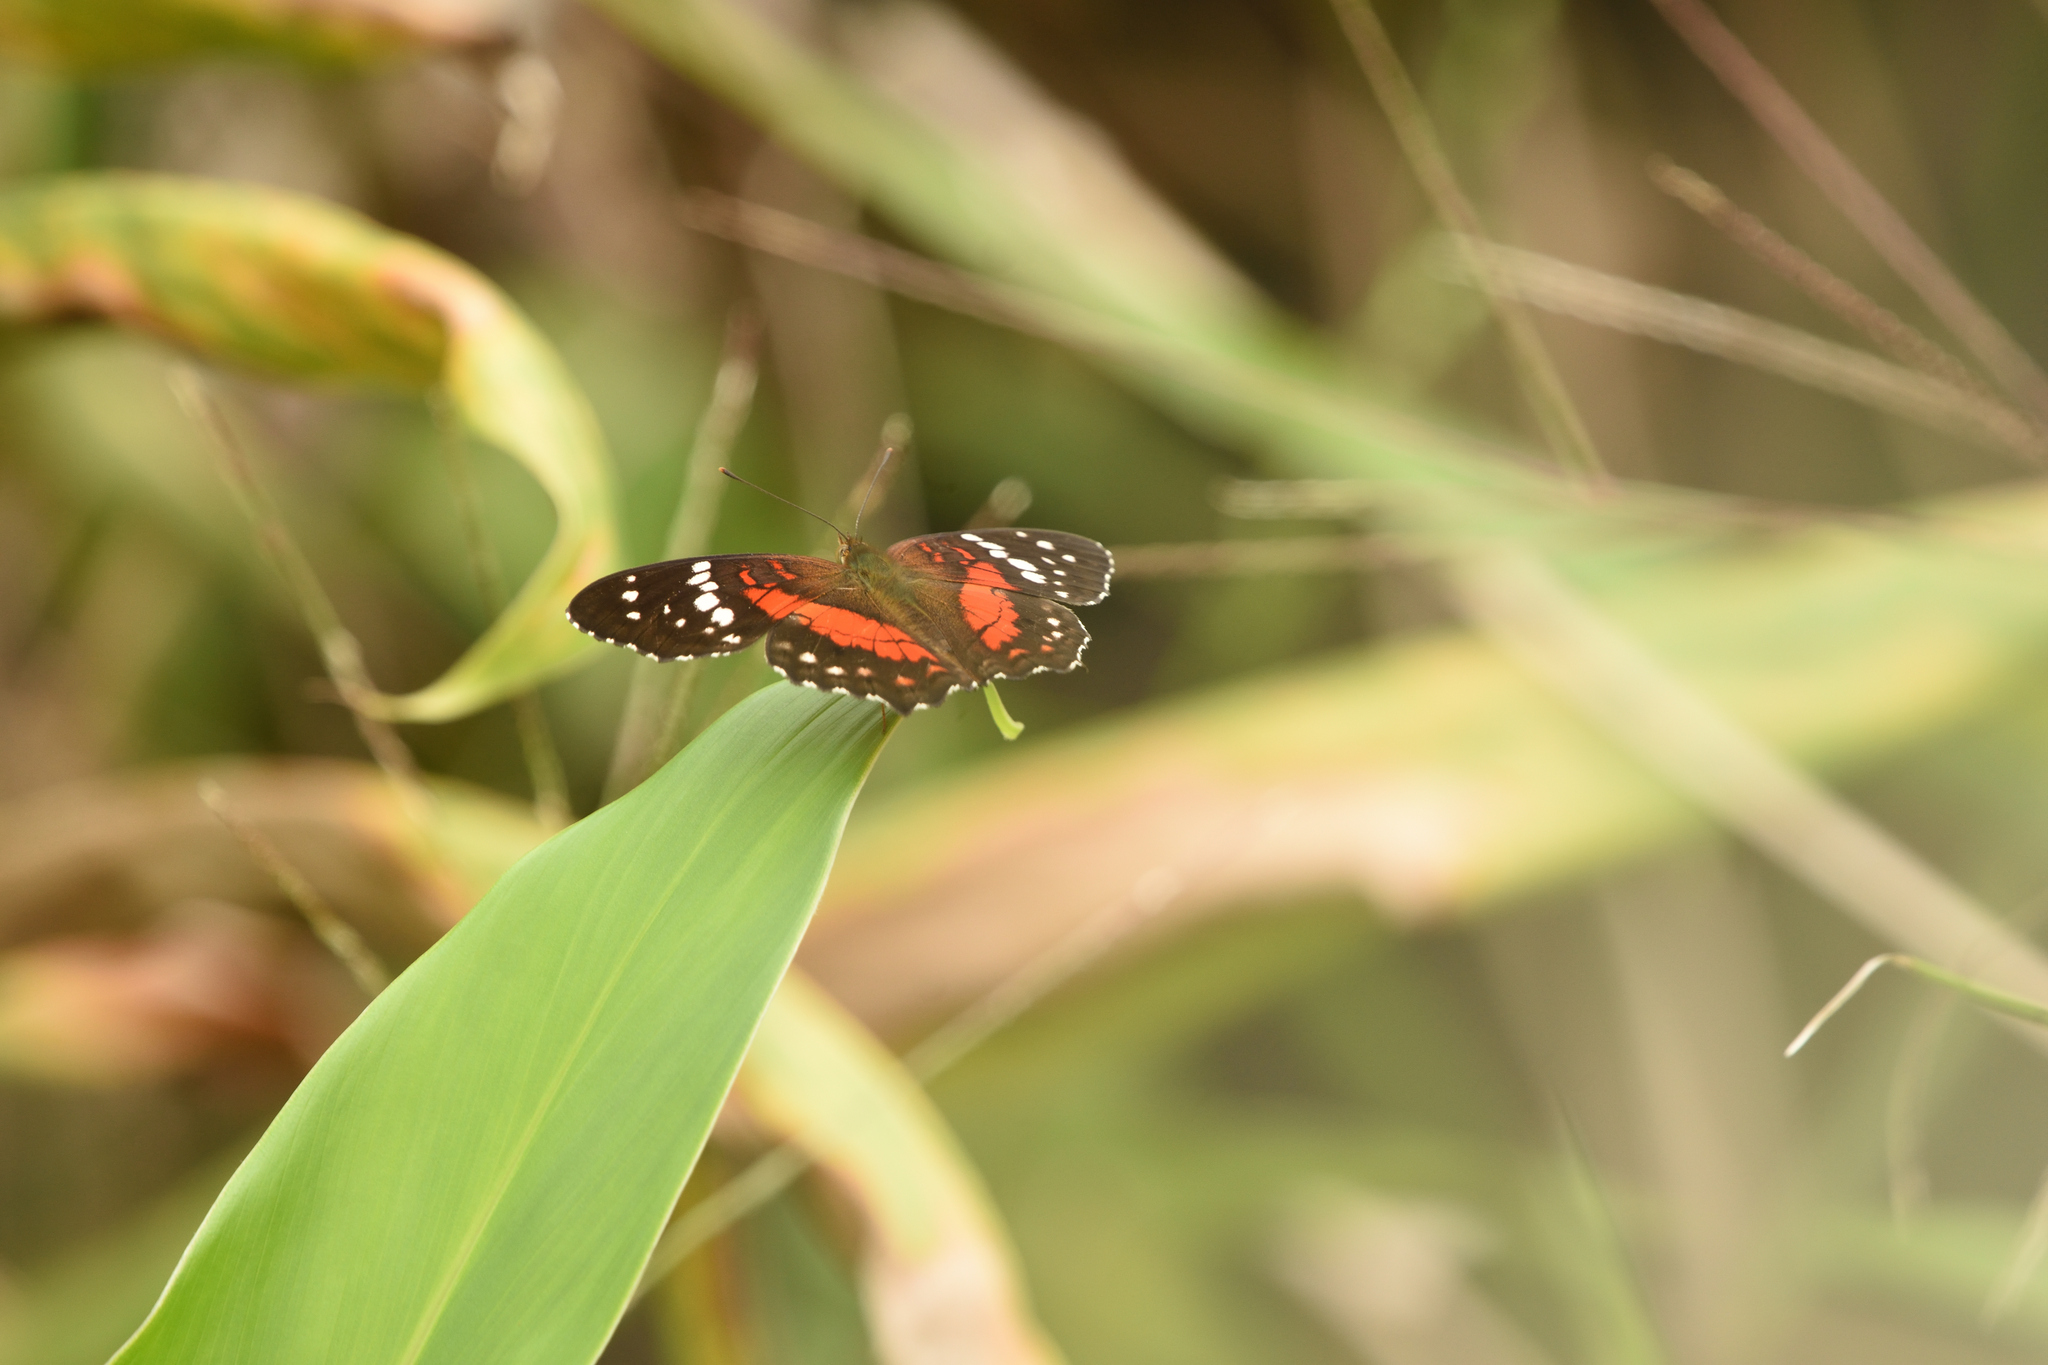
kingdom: Animalia
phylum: Arthropoda
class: Insecta
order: Lepidoptera
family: Nymphalidae
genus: Anartia
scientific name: Anartia amathea
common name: Red peacock
